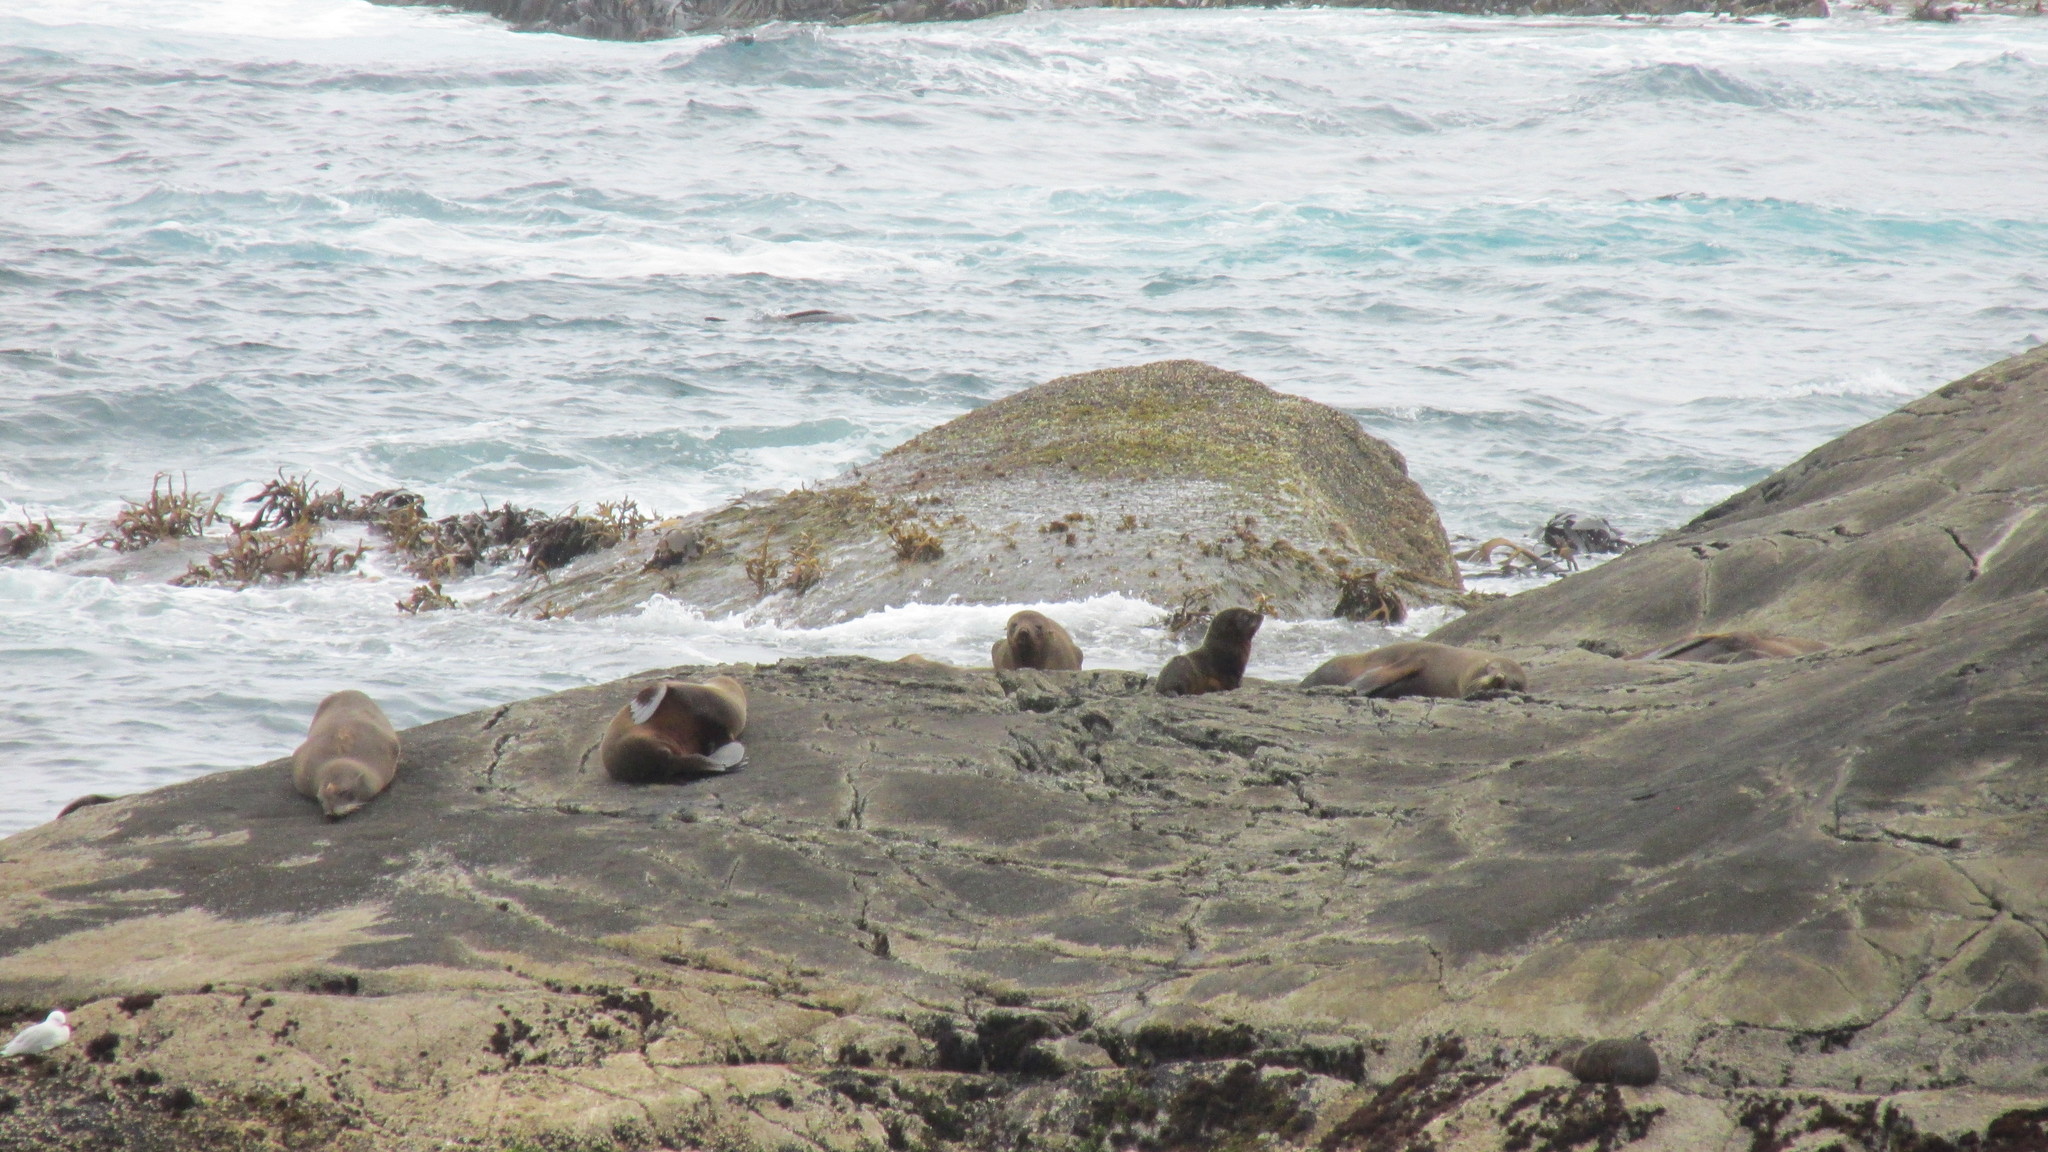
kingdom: Animalia
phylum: Chordata
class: Mammalia
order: Carnivora
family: Otariidae
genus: Arctocephalus
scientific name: Arctocephalus forsteri
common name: New zealand fur seal
